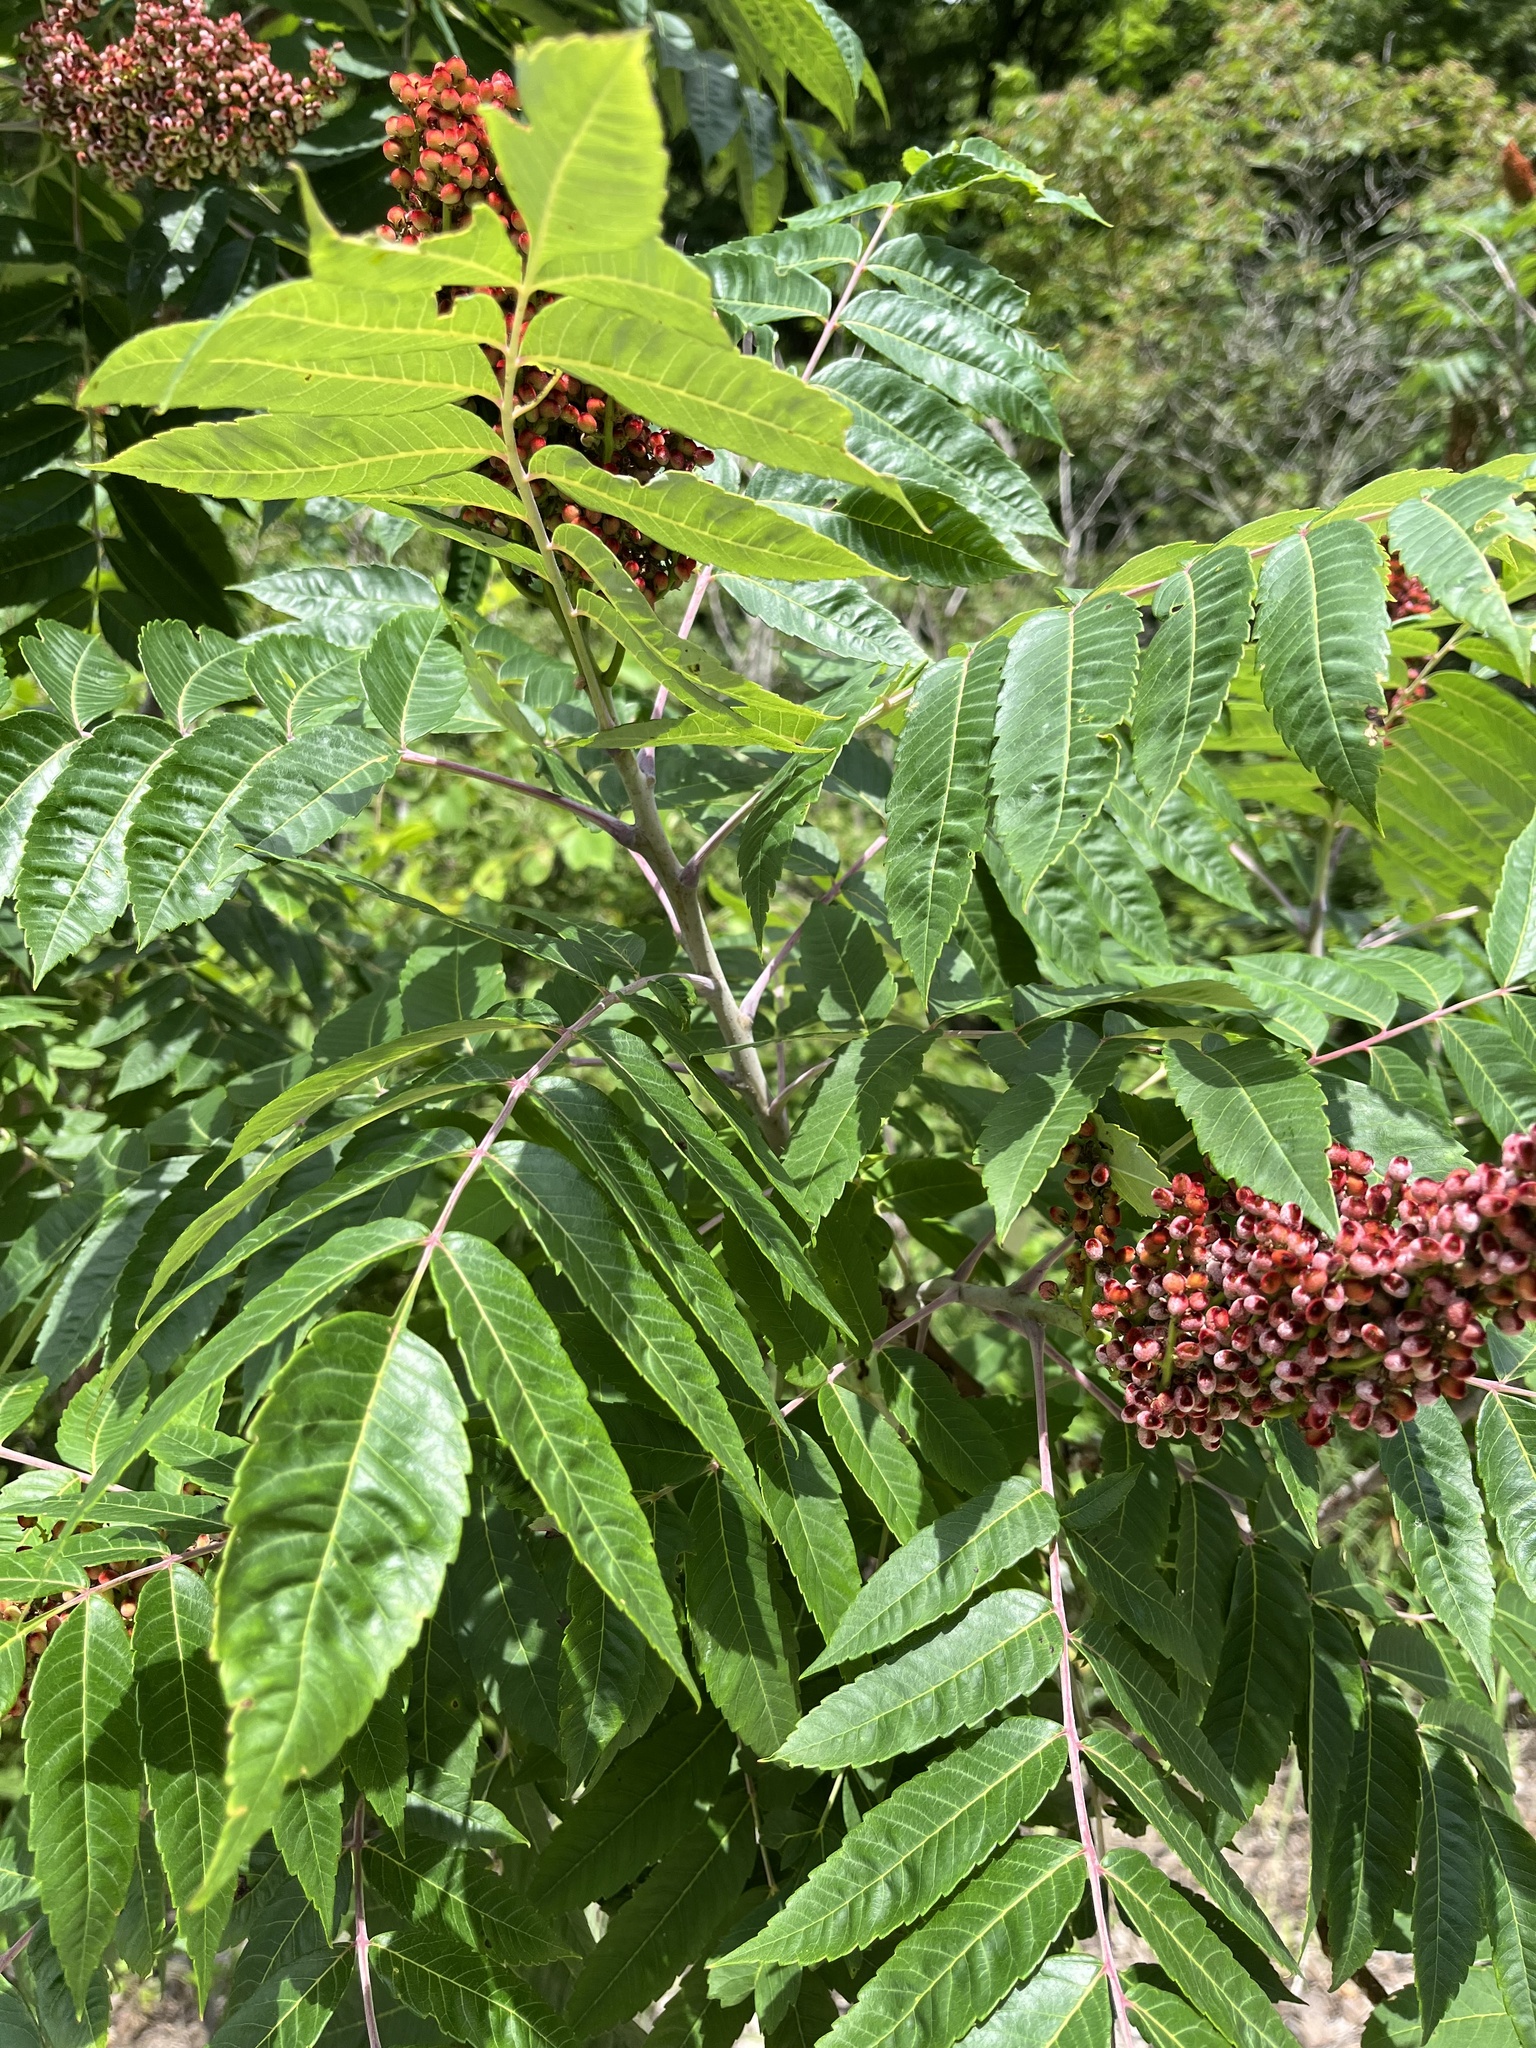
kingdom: Plantae
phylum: Tracheophyta
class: Magnoliopsida
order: Sapindales
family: Anacardiaceae
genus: Rhus
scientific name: Rhus glabra
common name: Scarlet sumac
